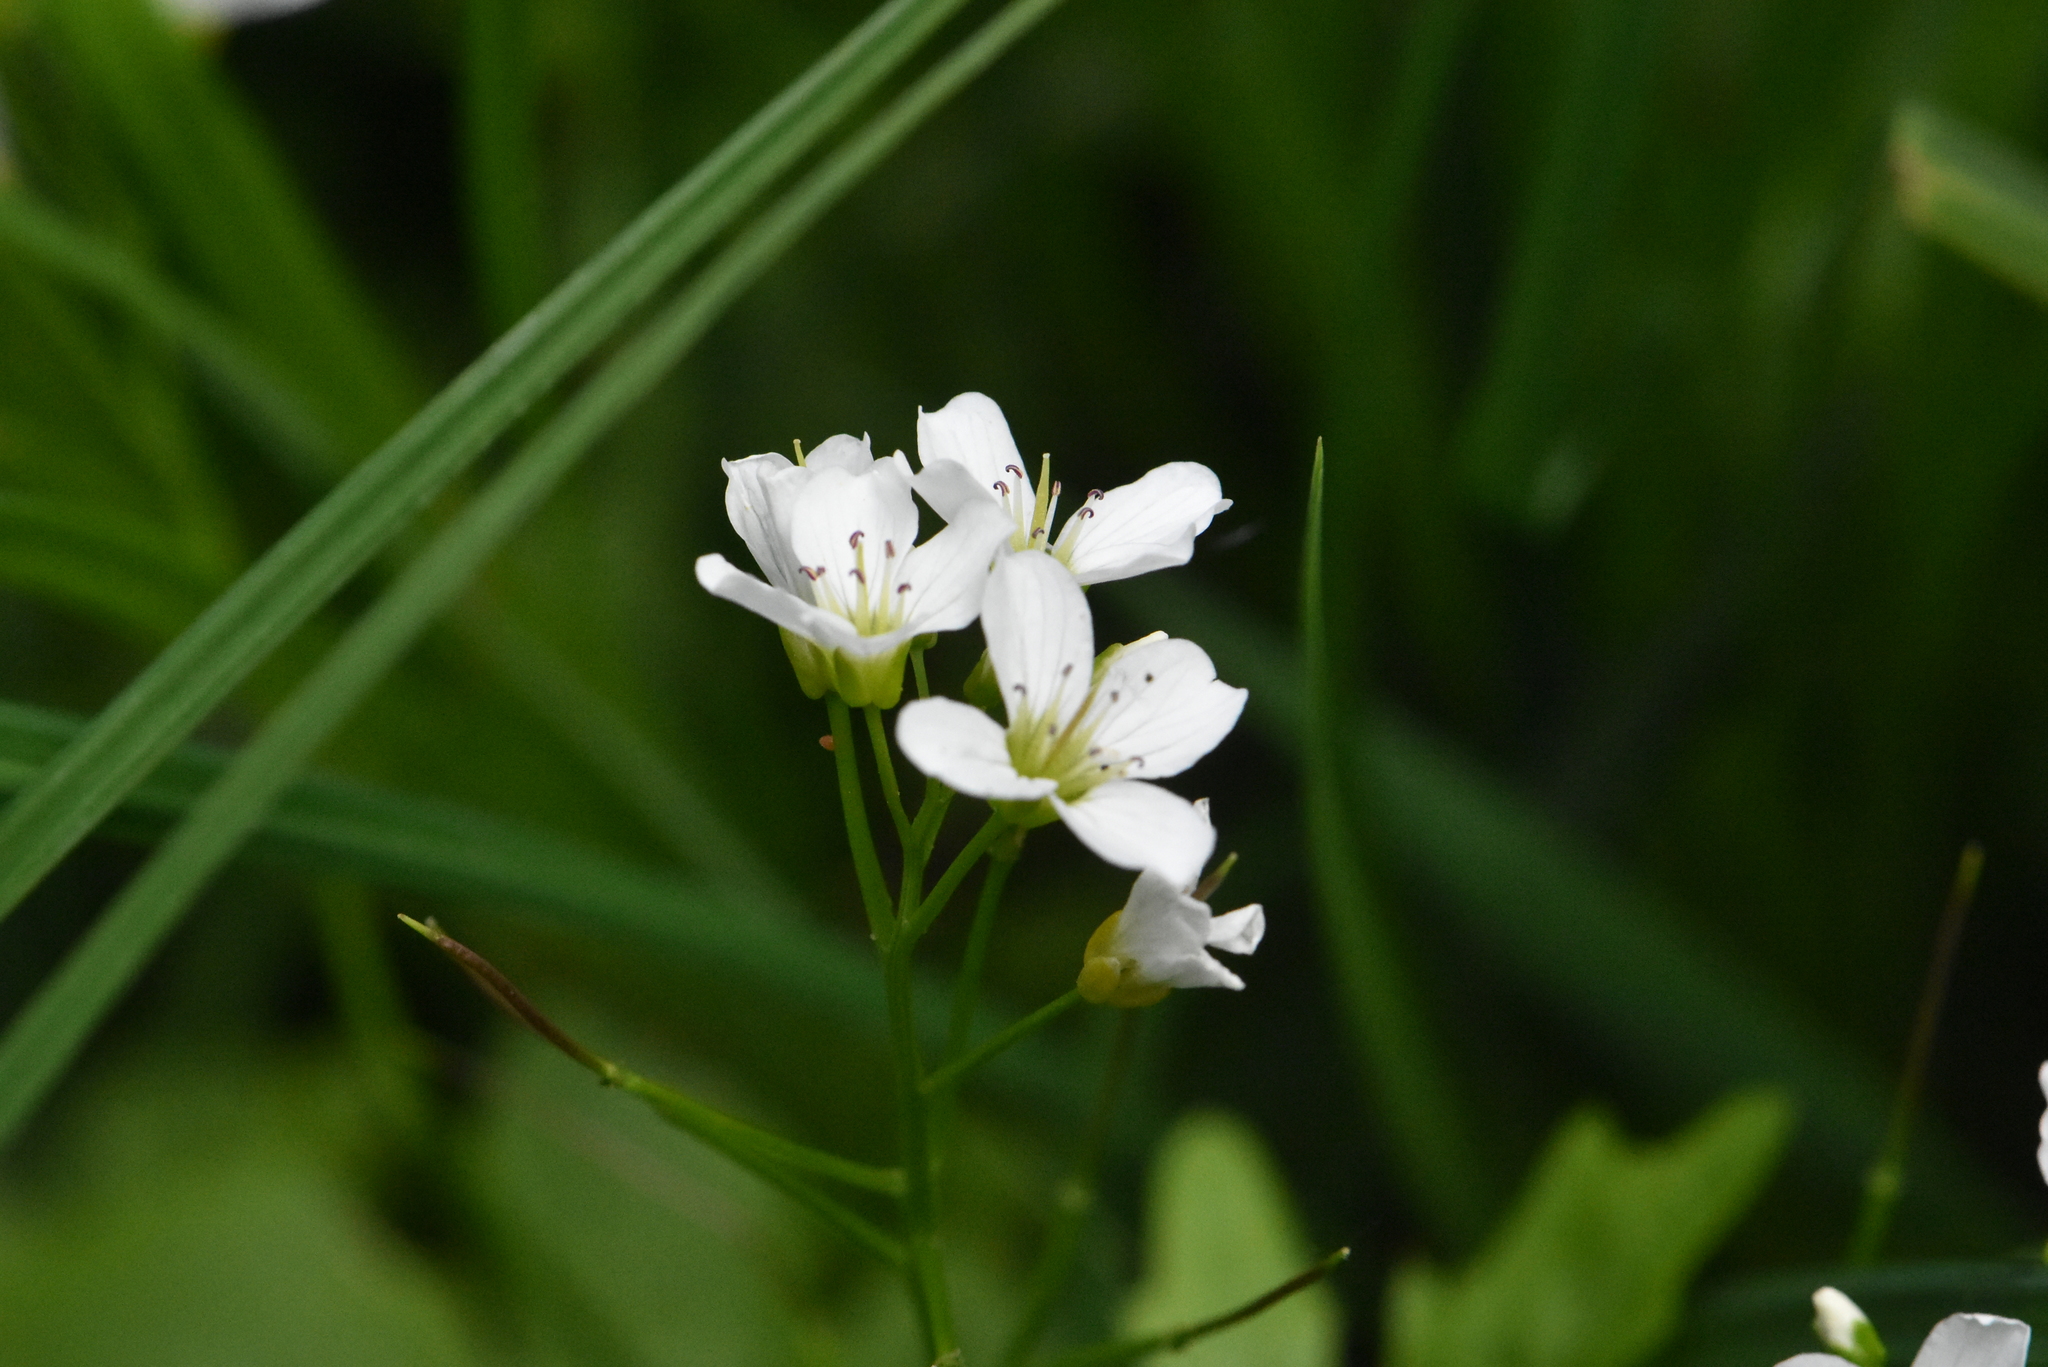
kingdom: Plantae
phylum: Tracheophyta
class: Magnoliopsida
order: Brassicales
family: Brassicaceae
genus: Cardamine
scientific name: Cardamine amara
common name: Large bitter-cress
